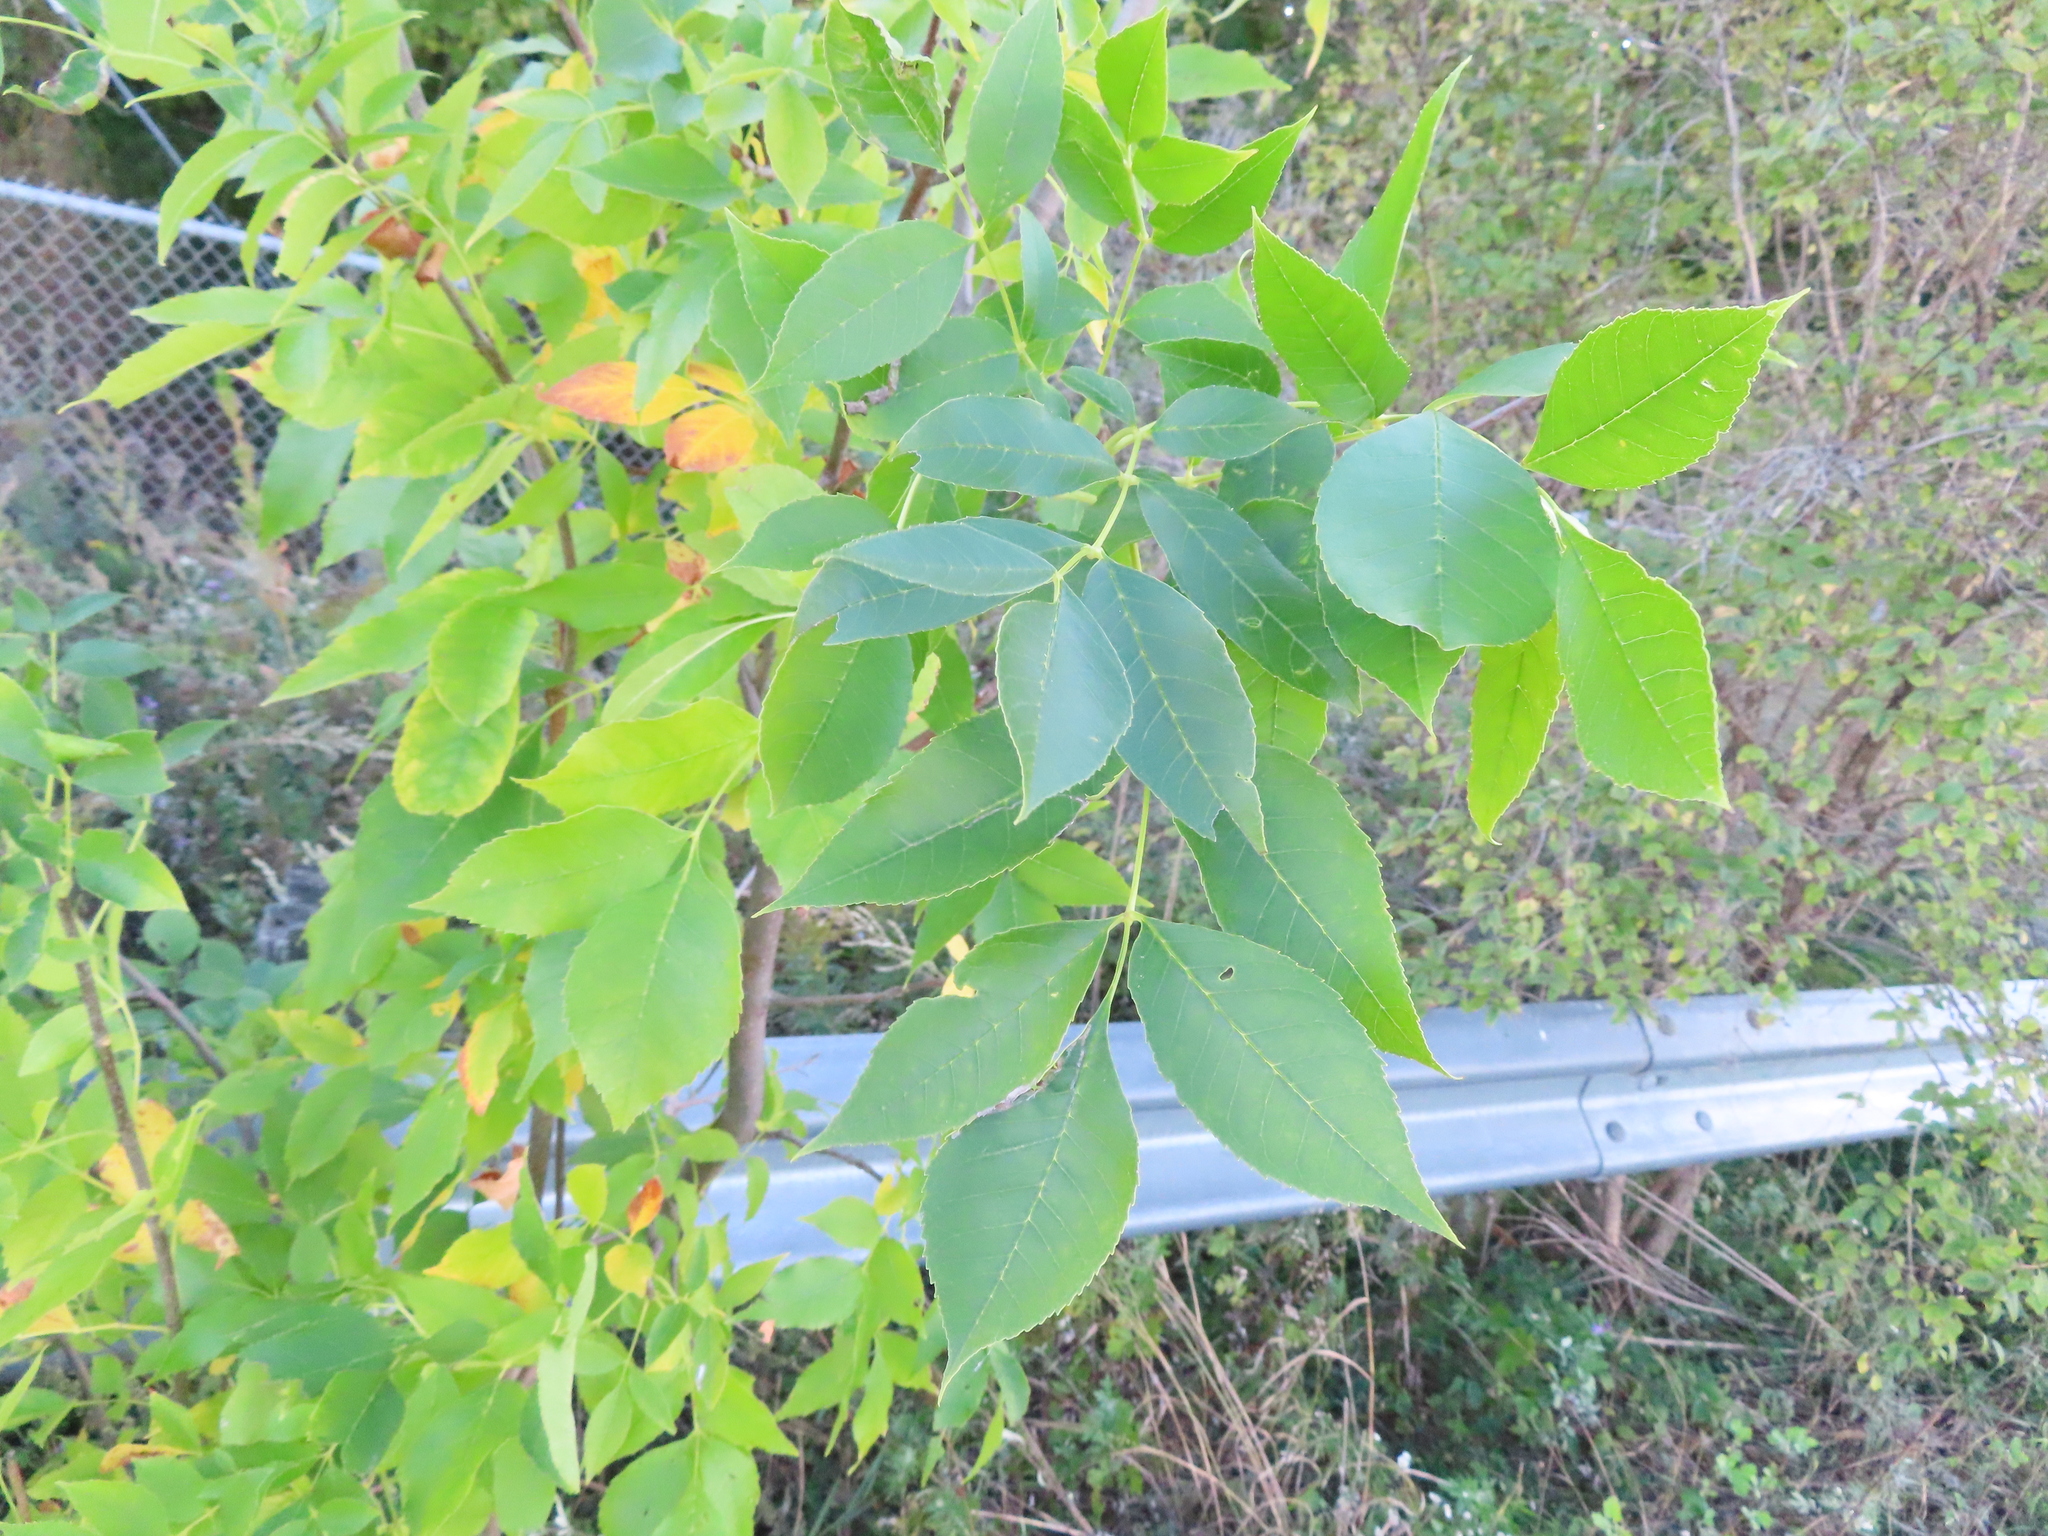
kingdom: Plantae
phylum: Tracheophyta
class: Magnoliopsida
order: Lamiales
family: Oleaceae
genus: Fraxinus
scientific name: Fraxinus pennsylvanica
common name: Green ash
